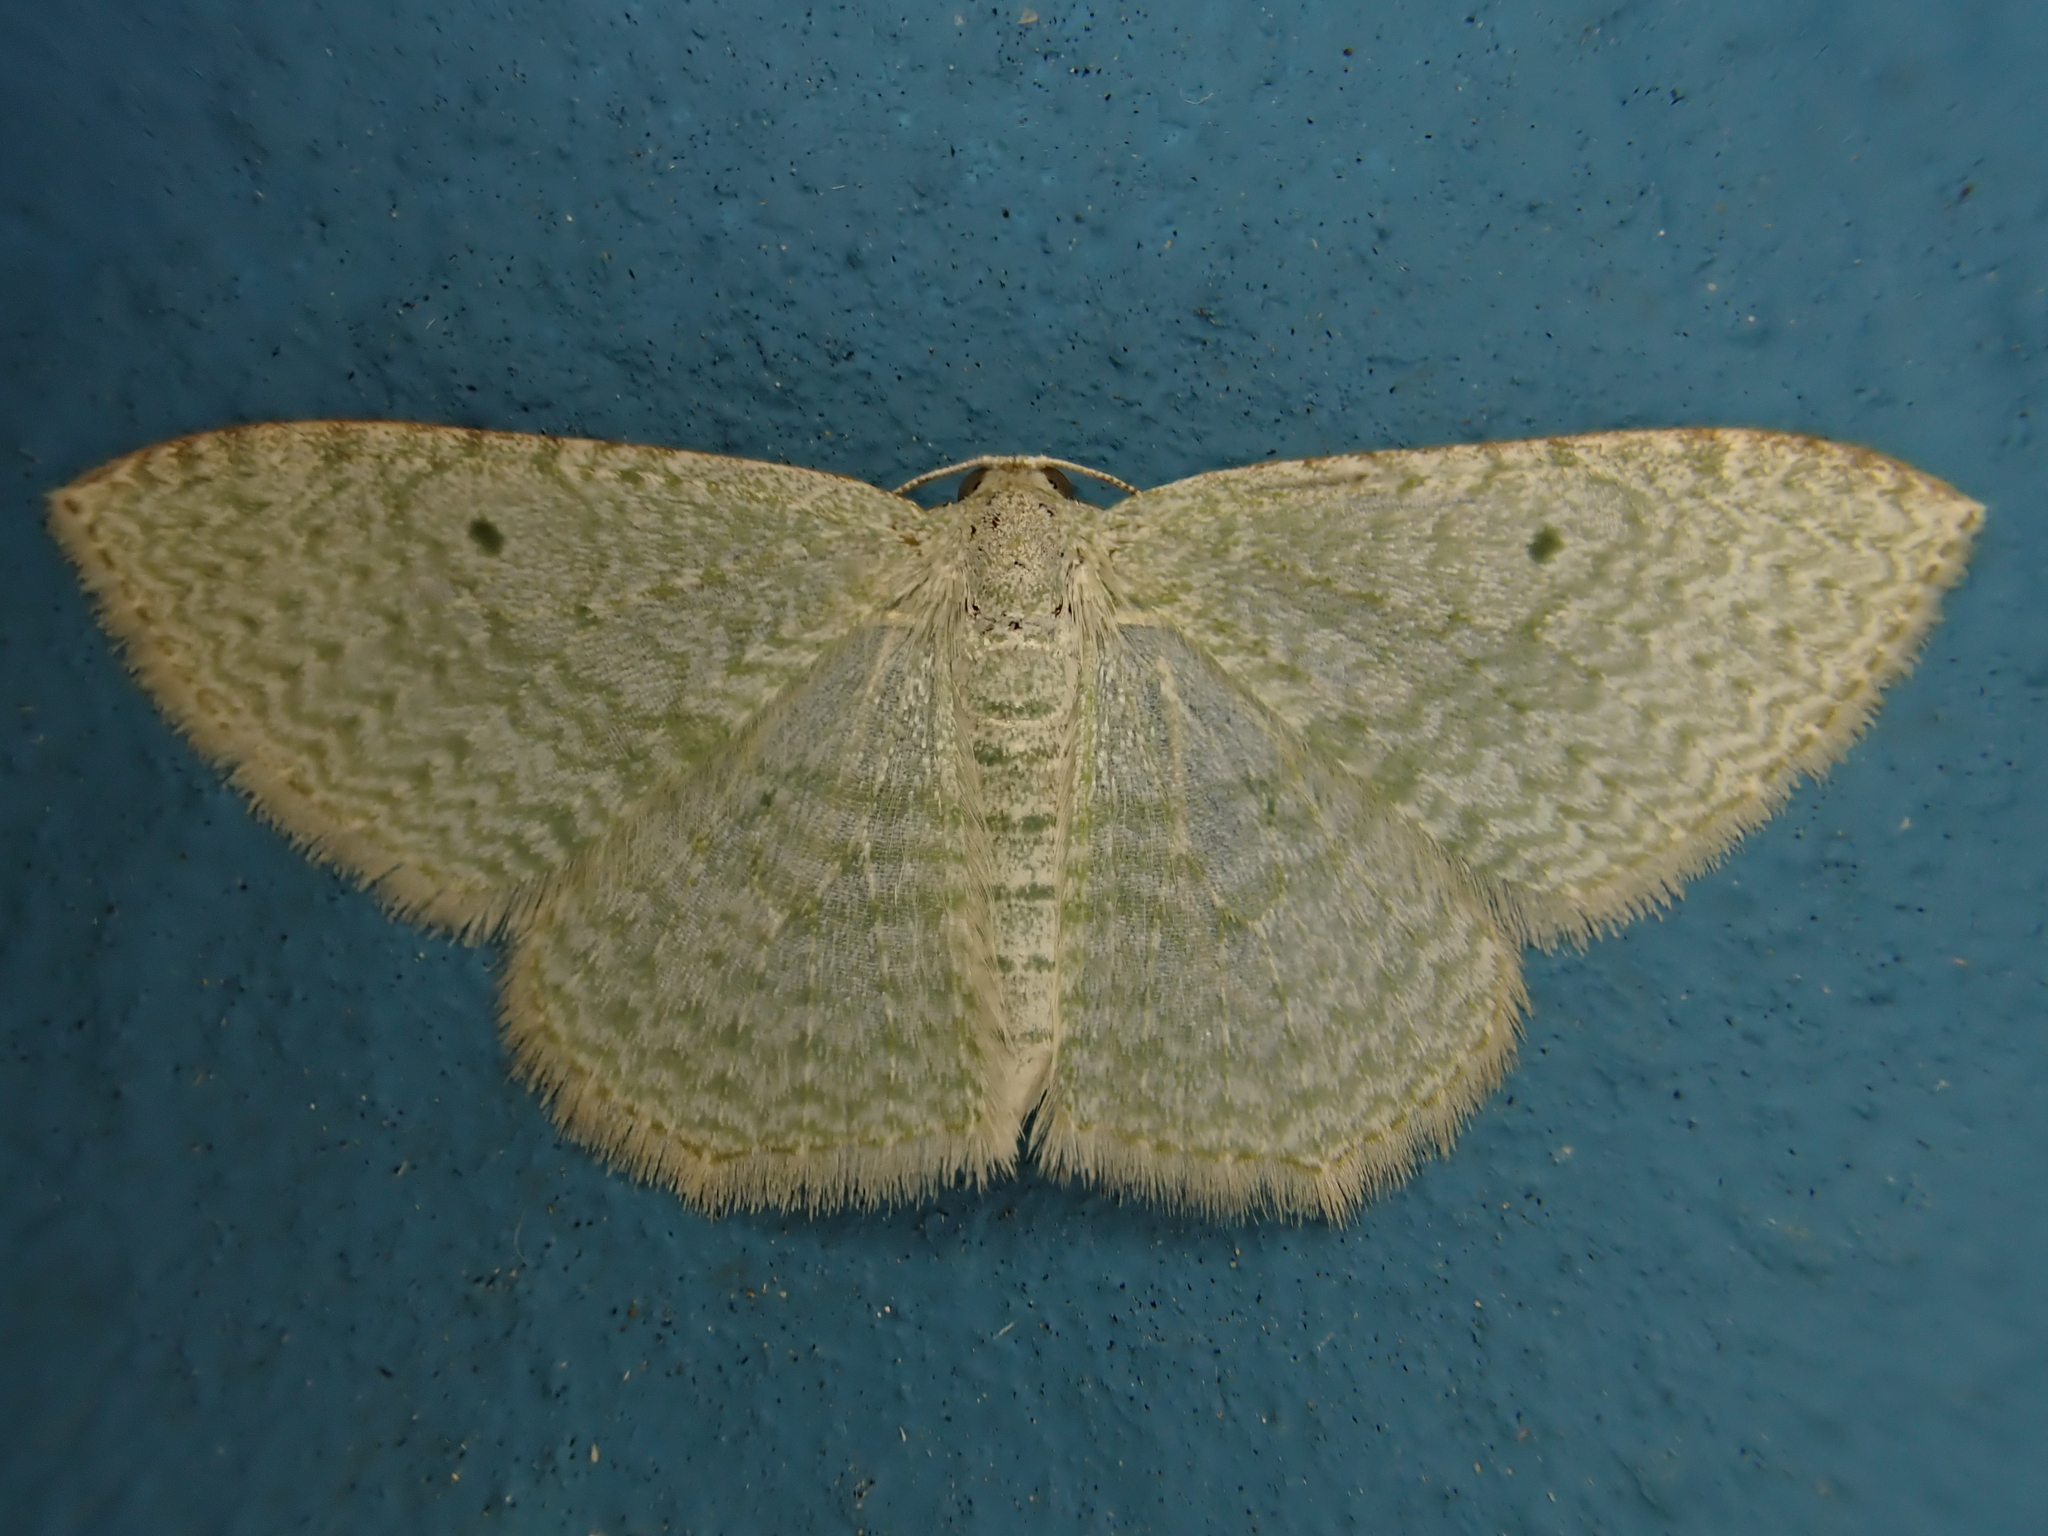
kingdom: Animalia
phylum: Arthropoda
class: Insecta
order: Lepidoptera
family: Geometridae
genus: Poecilasthena
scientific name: Poecilasthena pulchraria
